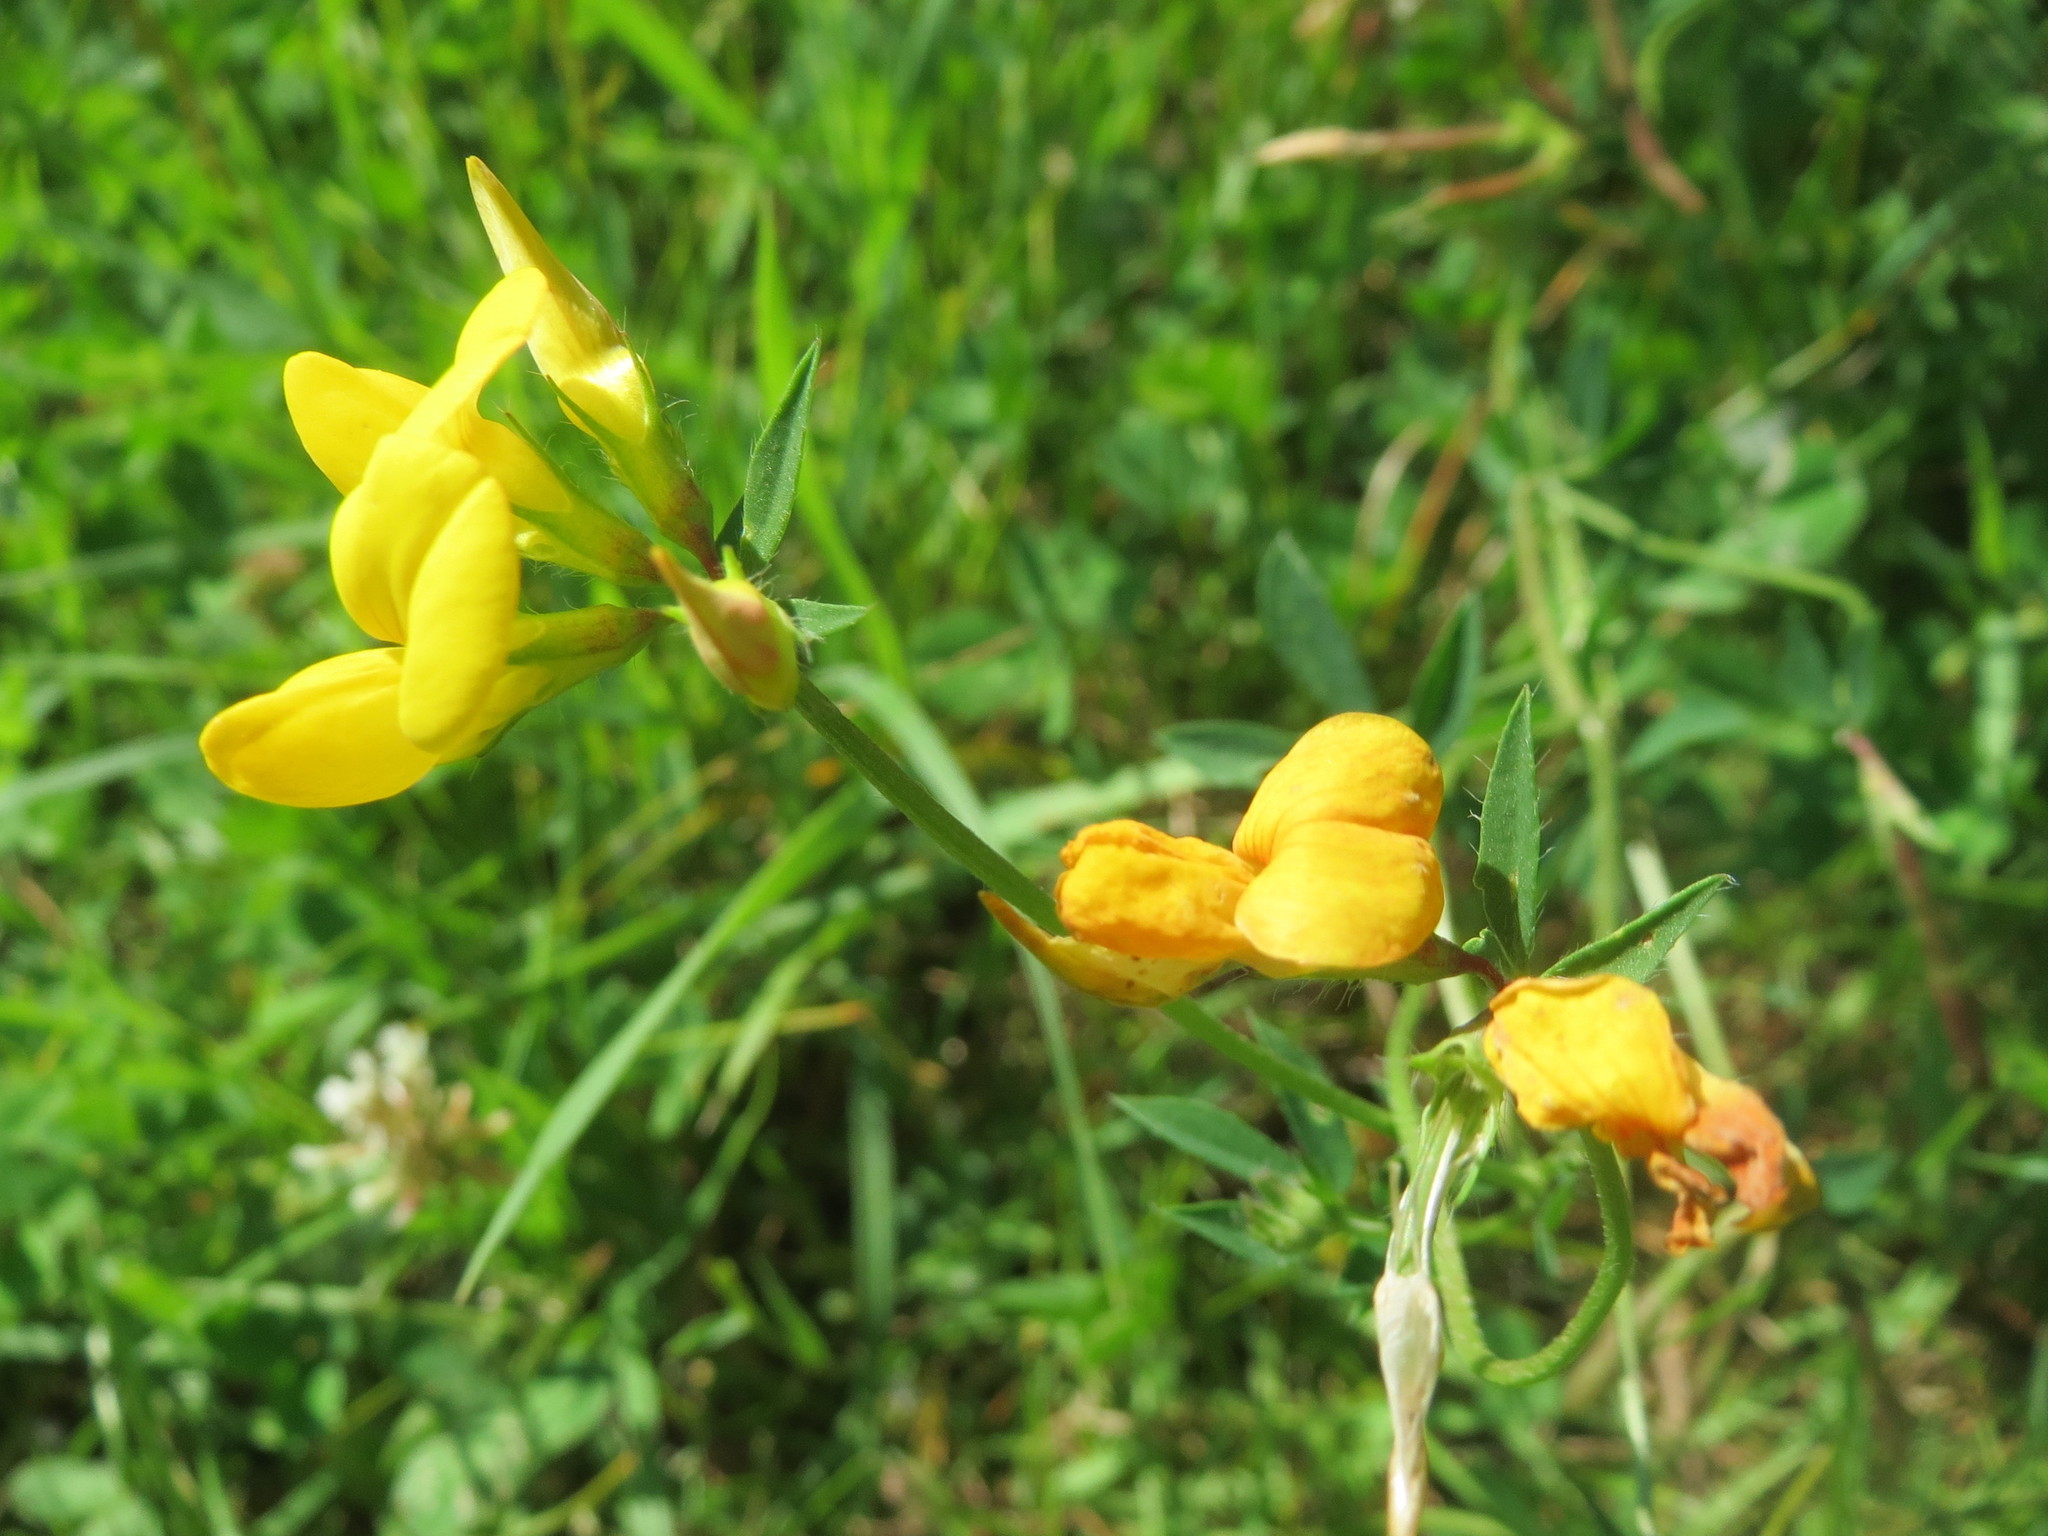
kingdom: Plantae
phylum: Tracheophyta
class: Magnoliopsida
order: Fabales
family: Fabaceae
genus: Lotus
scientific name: Lotus corniculatus
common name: Common bird's-foot-trefoil
